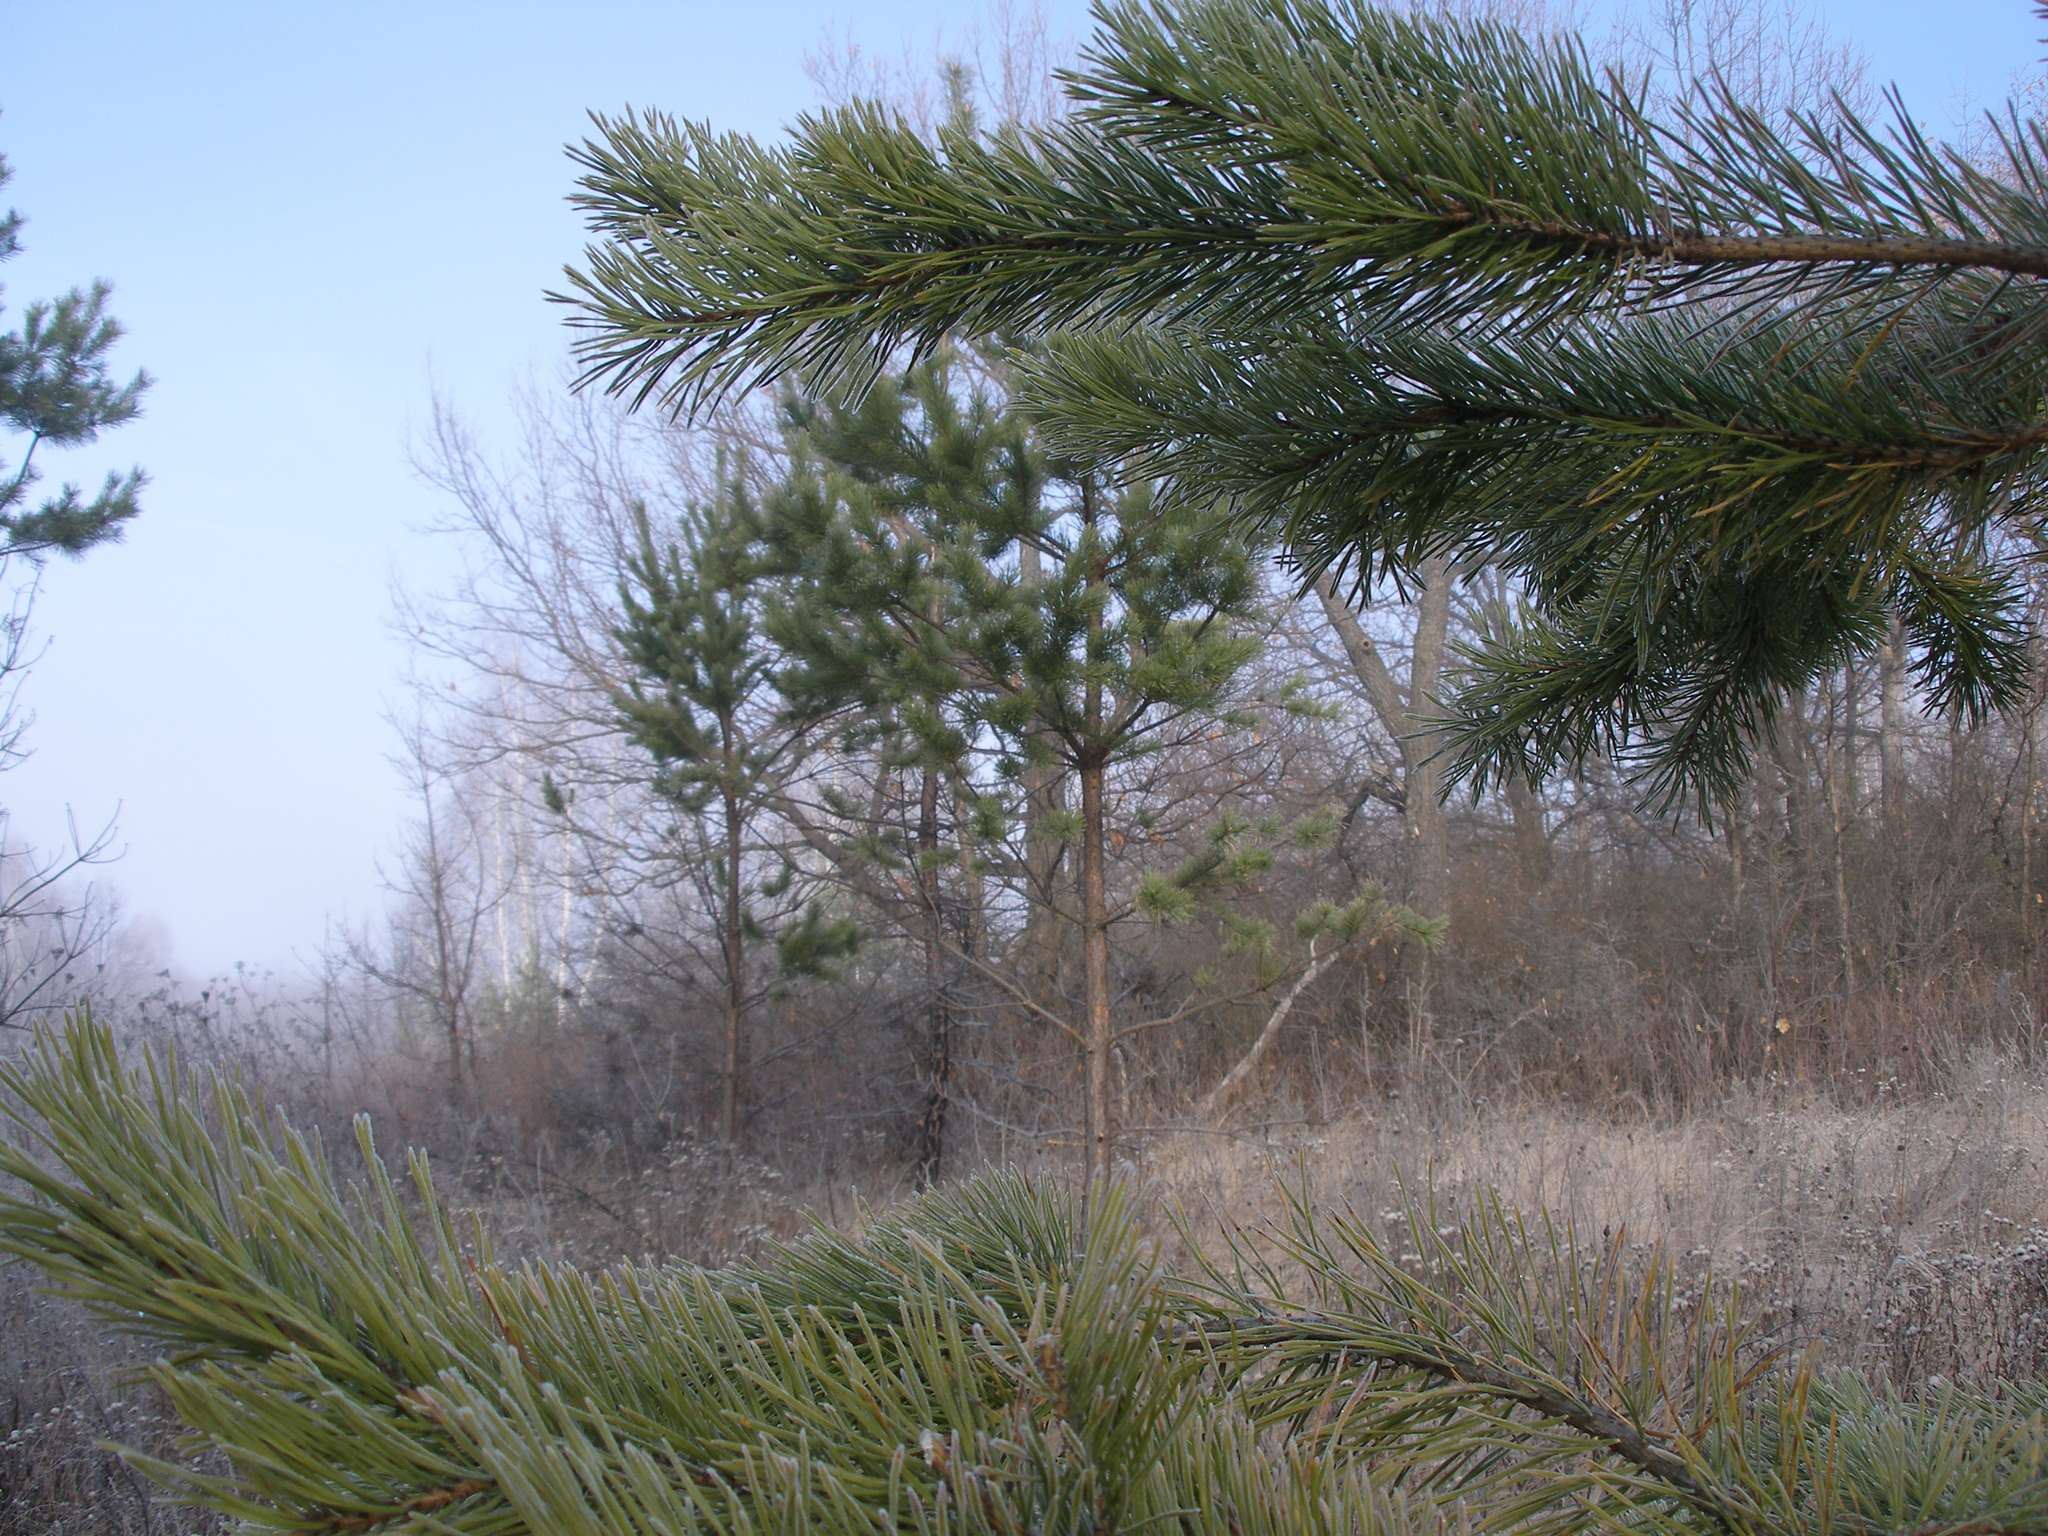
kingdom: Plantae
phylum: Tracheophyta
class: Pinopsida
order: Pinales
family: Pinaceae
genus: Pinus
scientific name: Pinus sylvestris
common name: Scots pine
